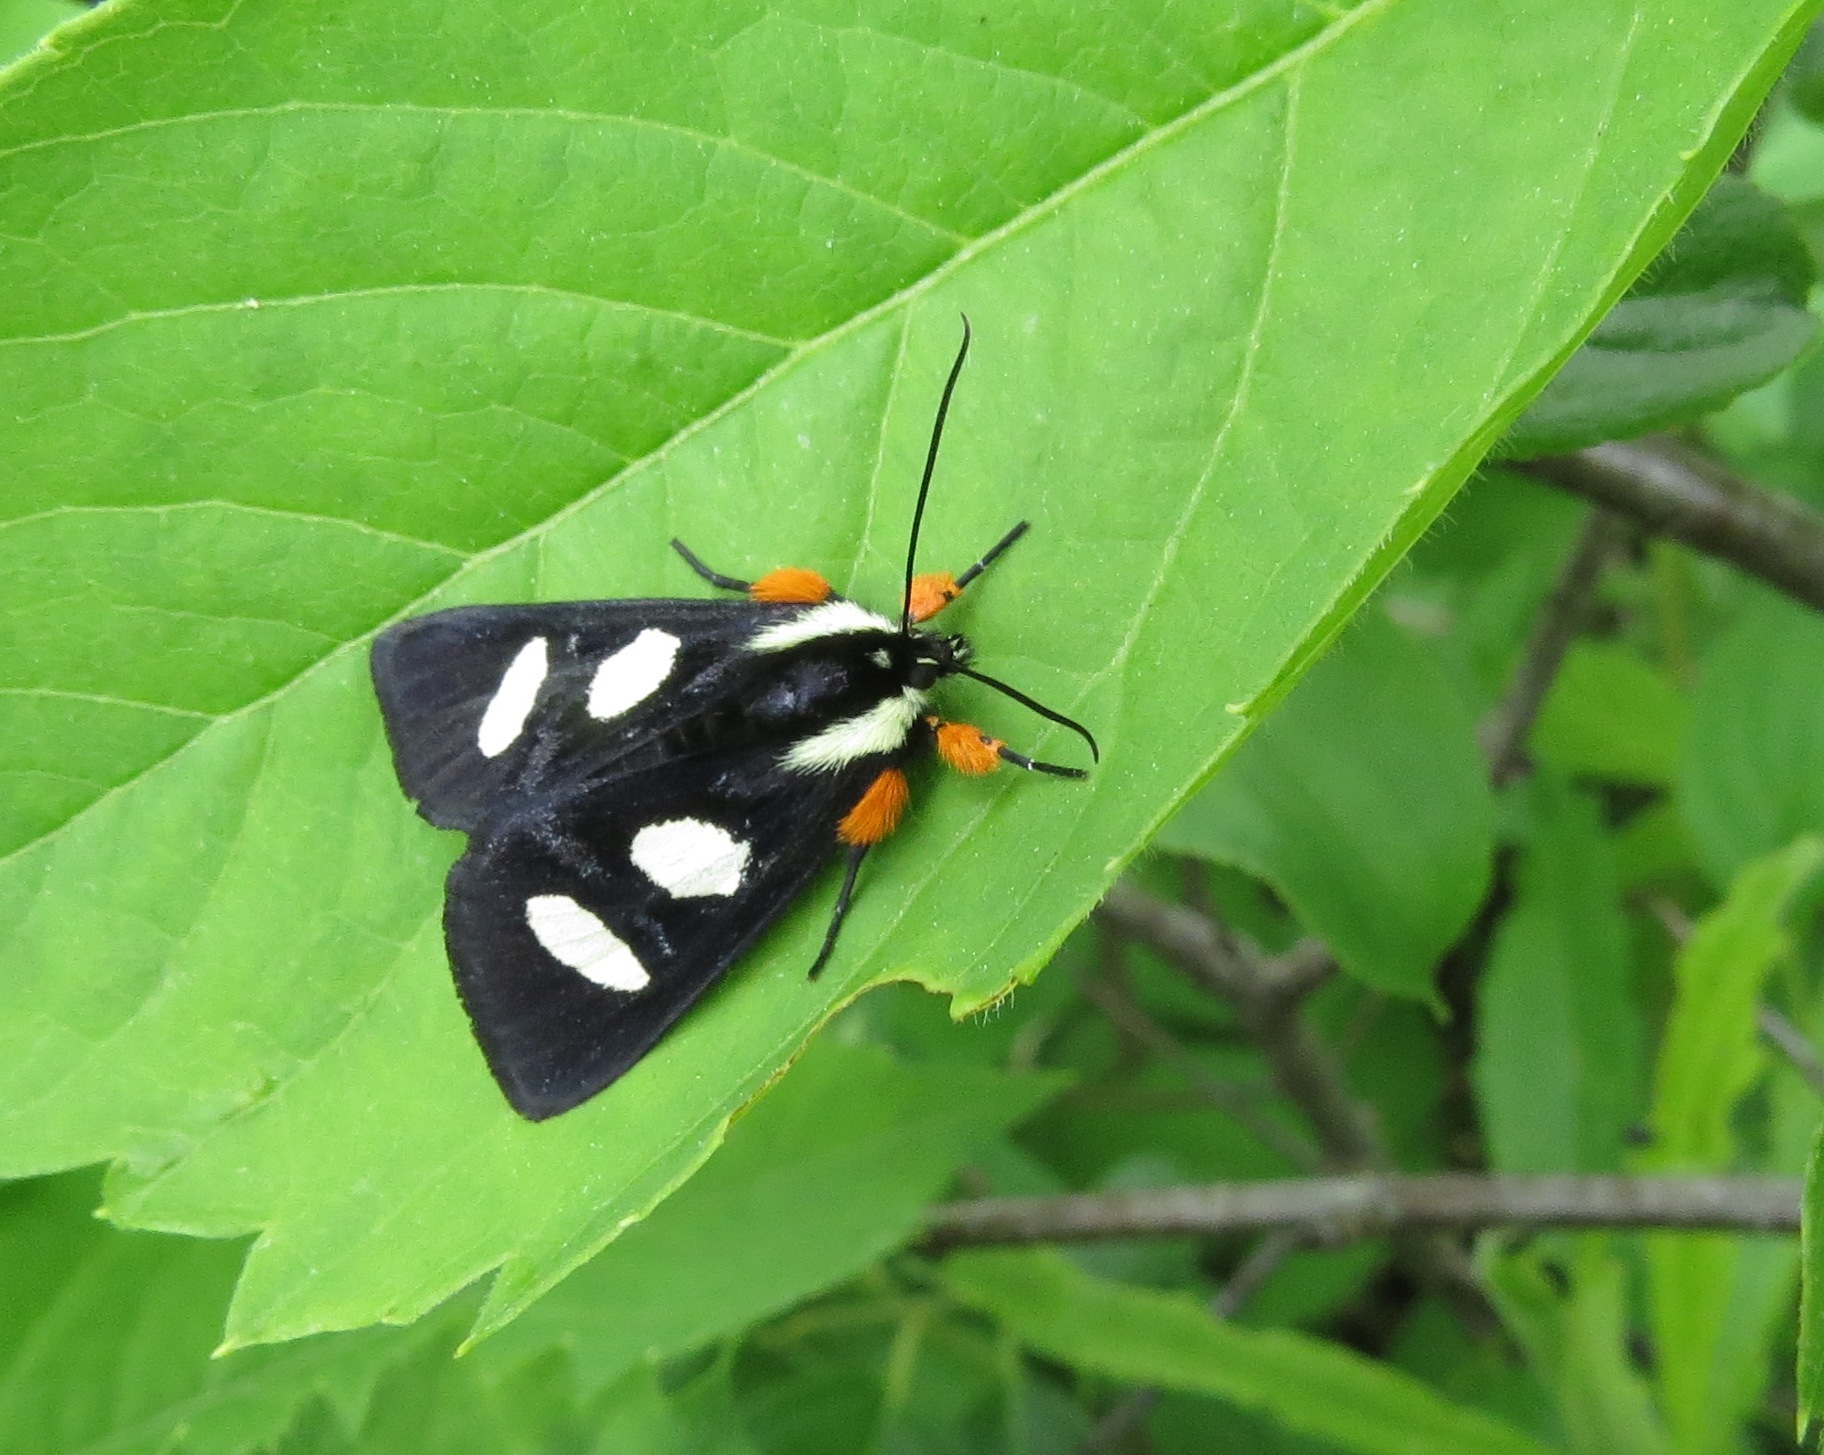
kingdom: Animalia
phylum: Arthropoda
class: Insecta
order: Lepidoptera
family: Noctuidae
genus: Alypia
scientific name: Alypia octomaculata
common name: Eight-spotted forester
